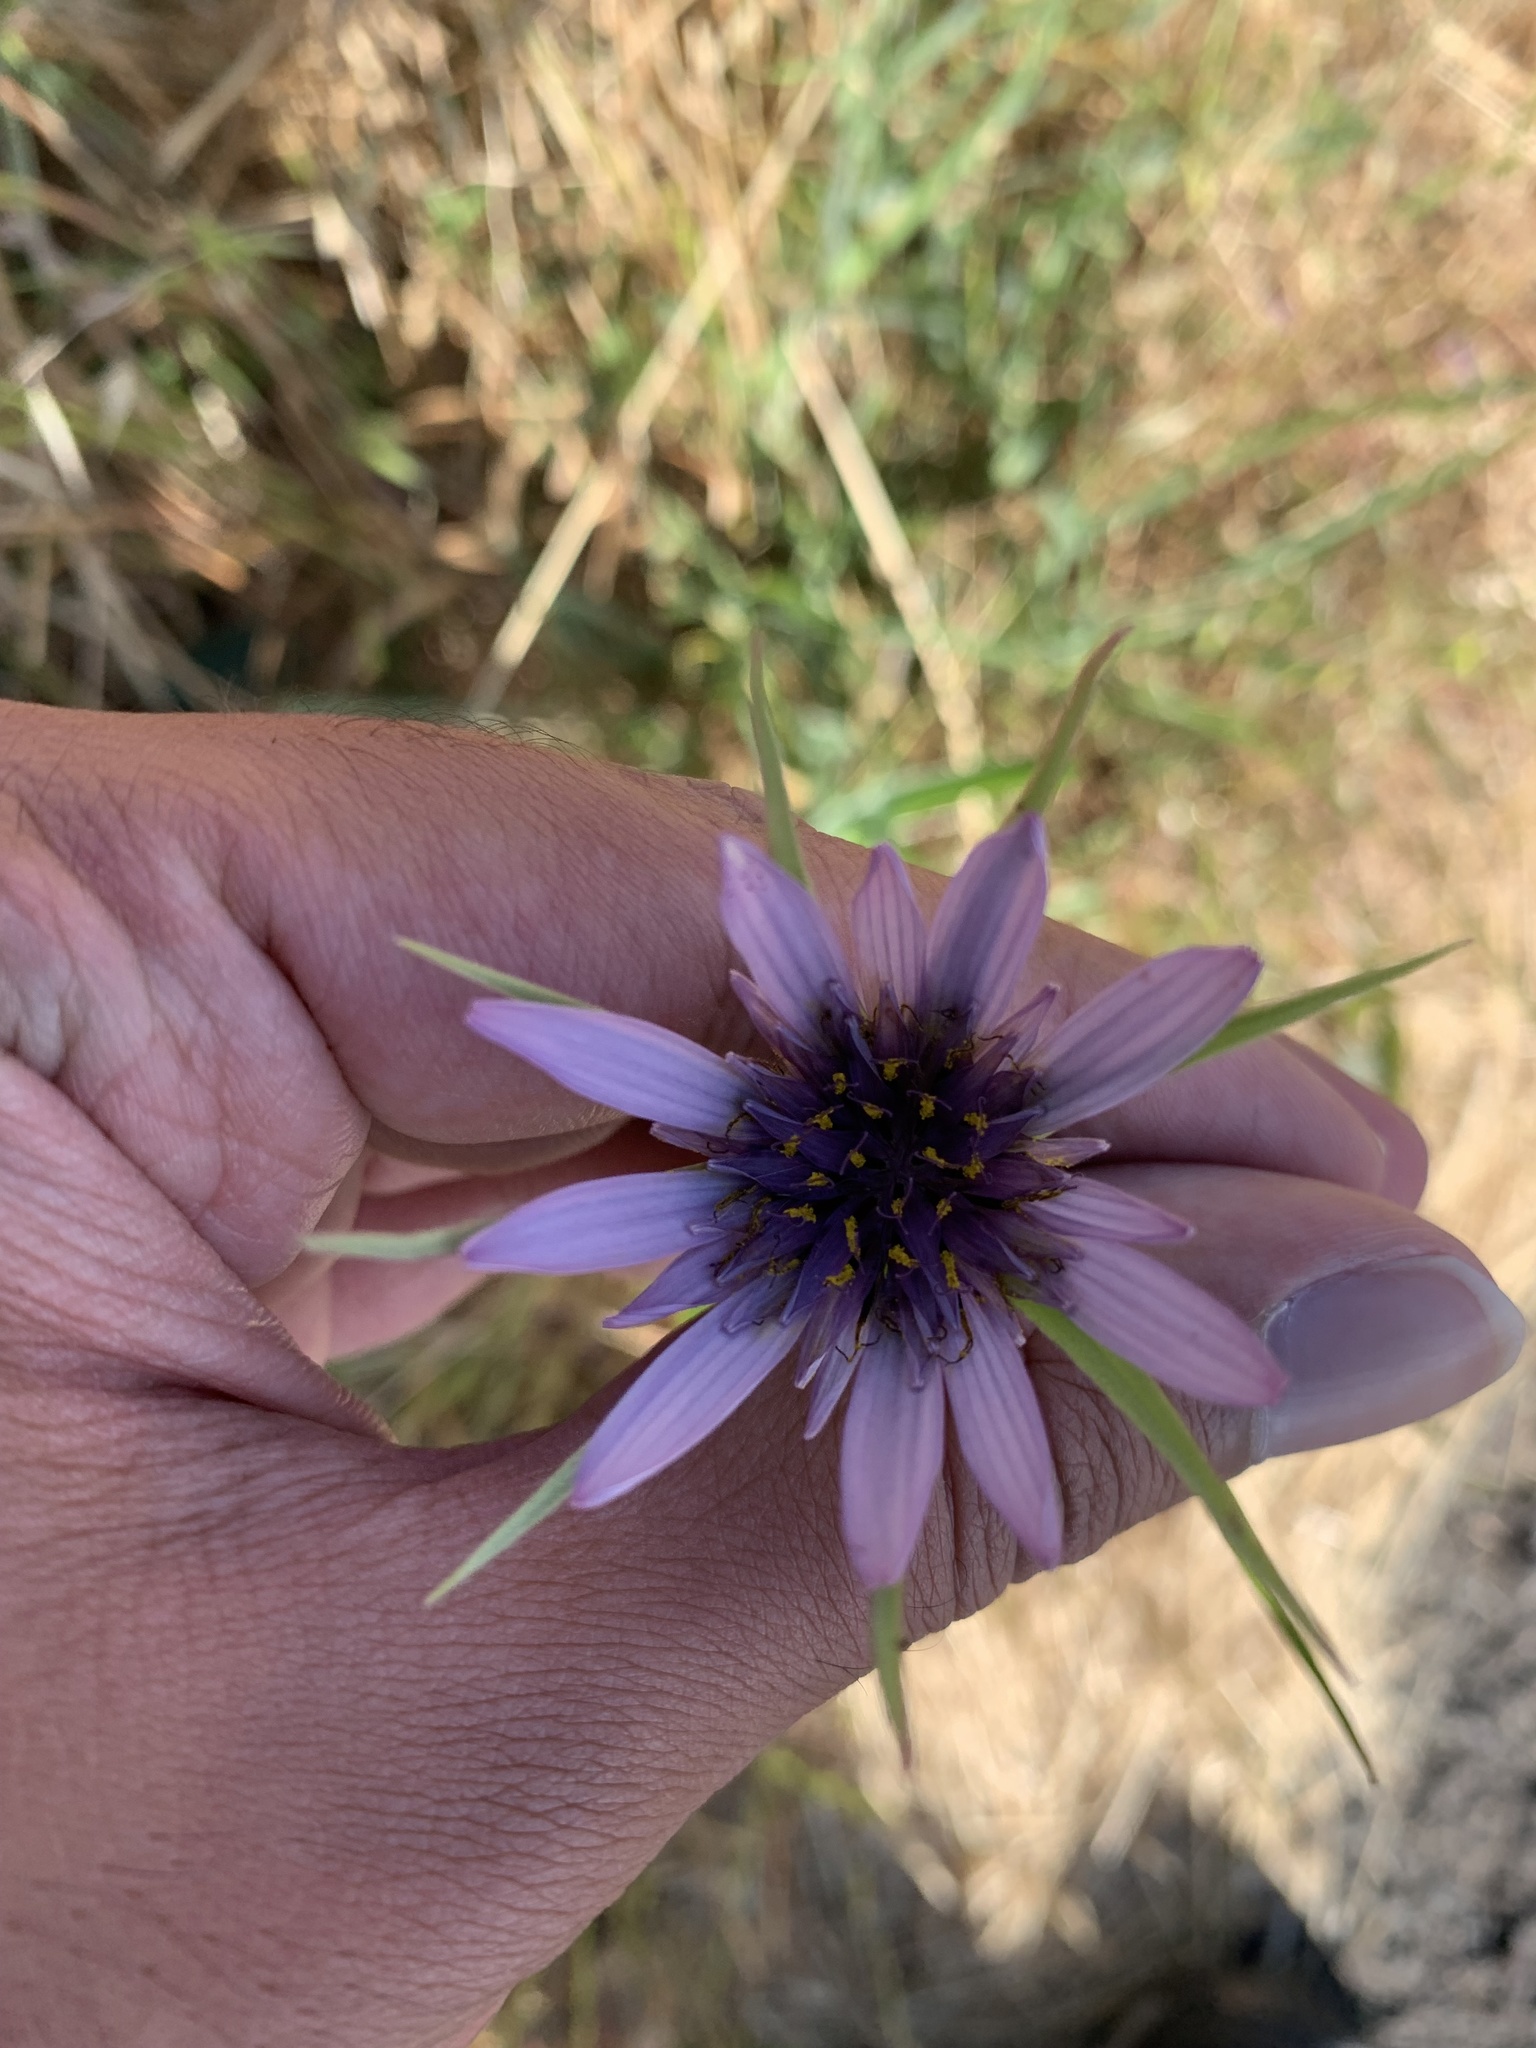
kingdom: Plantae
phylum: Tracheophyta
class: Magnoliopsida
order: Asterales
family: Asteraceae
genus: Tragopogon
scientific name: Tragopogon porrifolius
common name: Salsify
